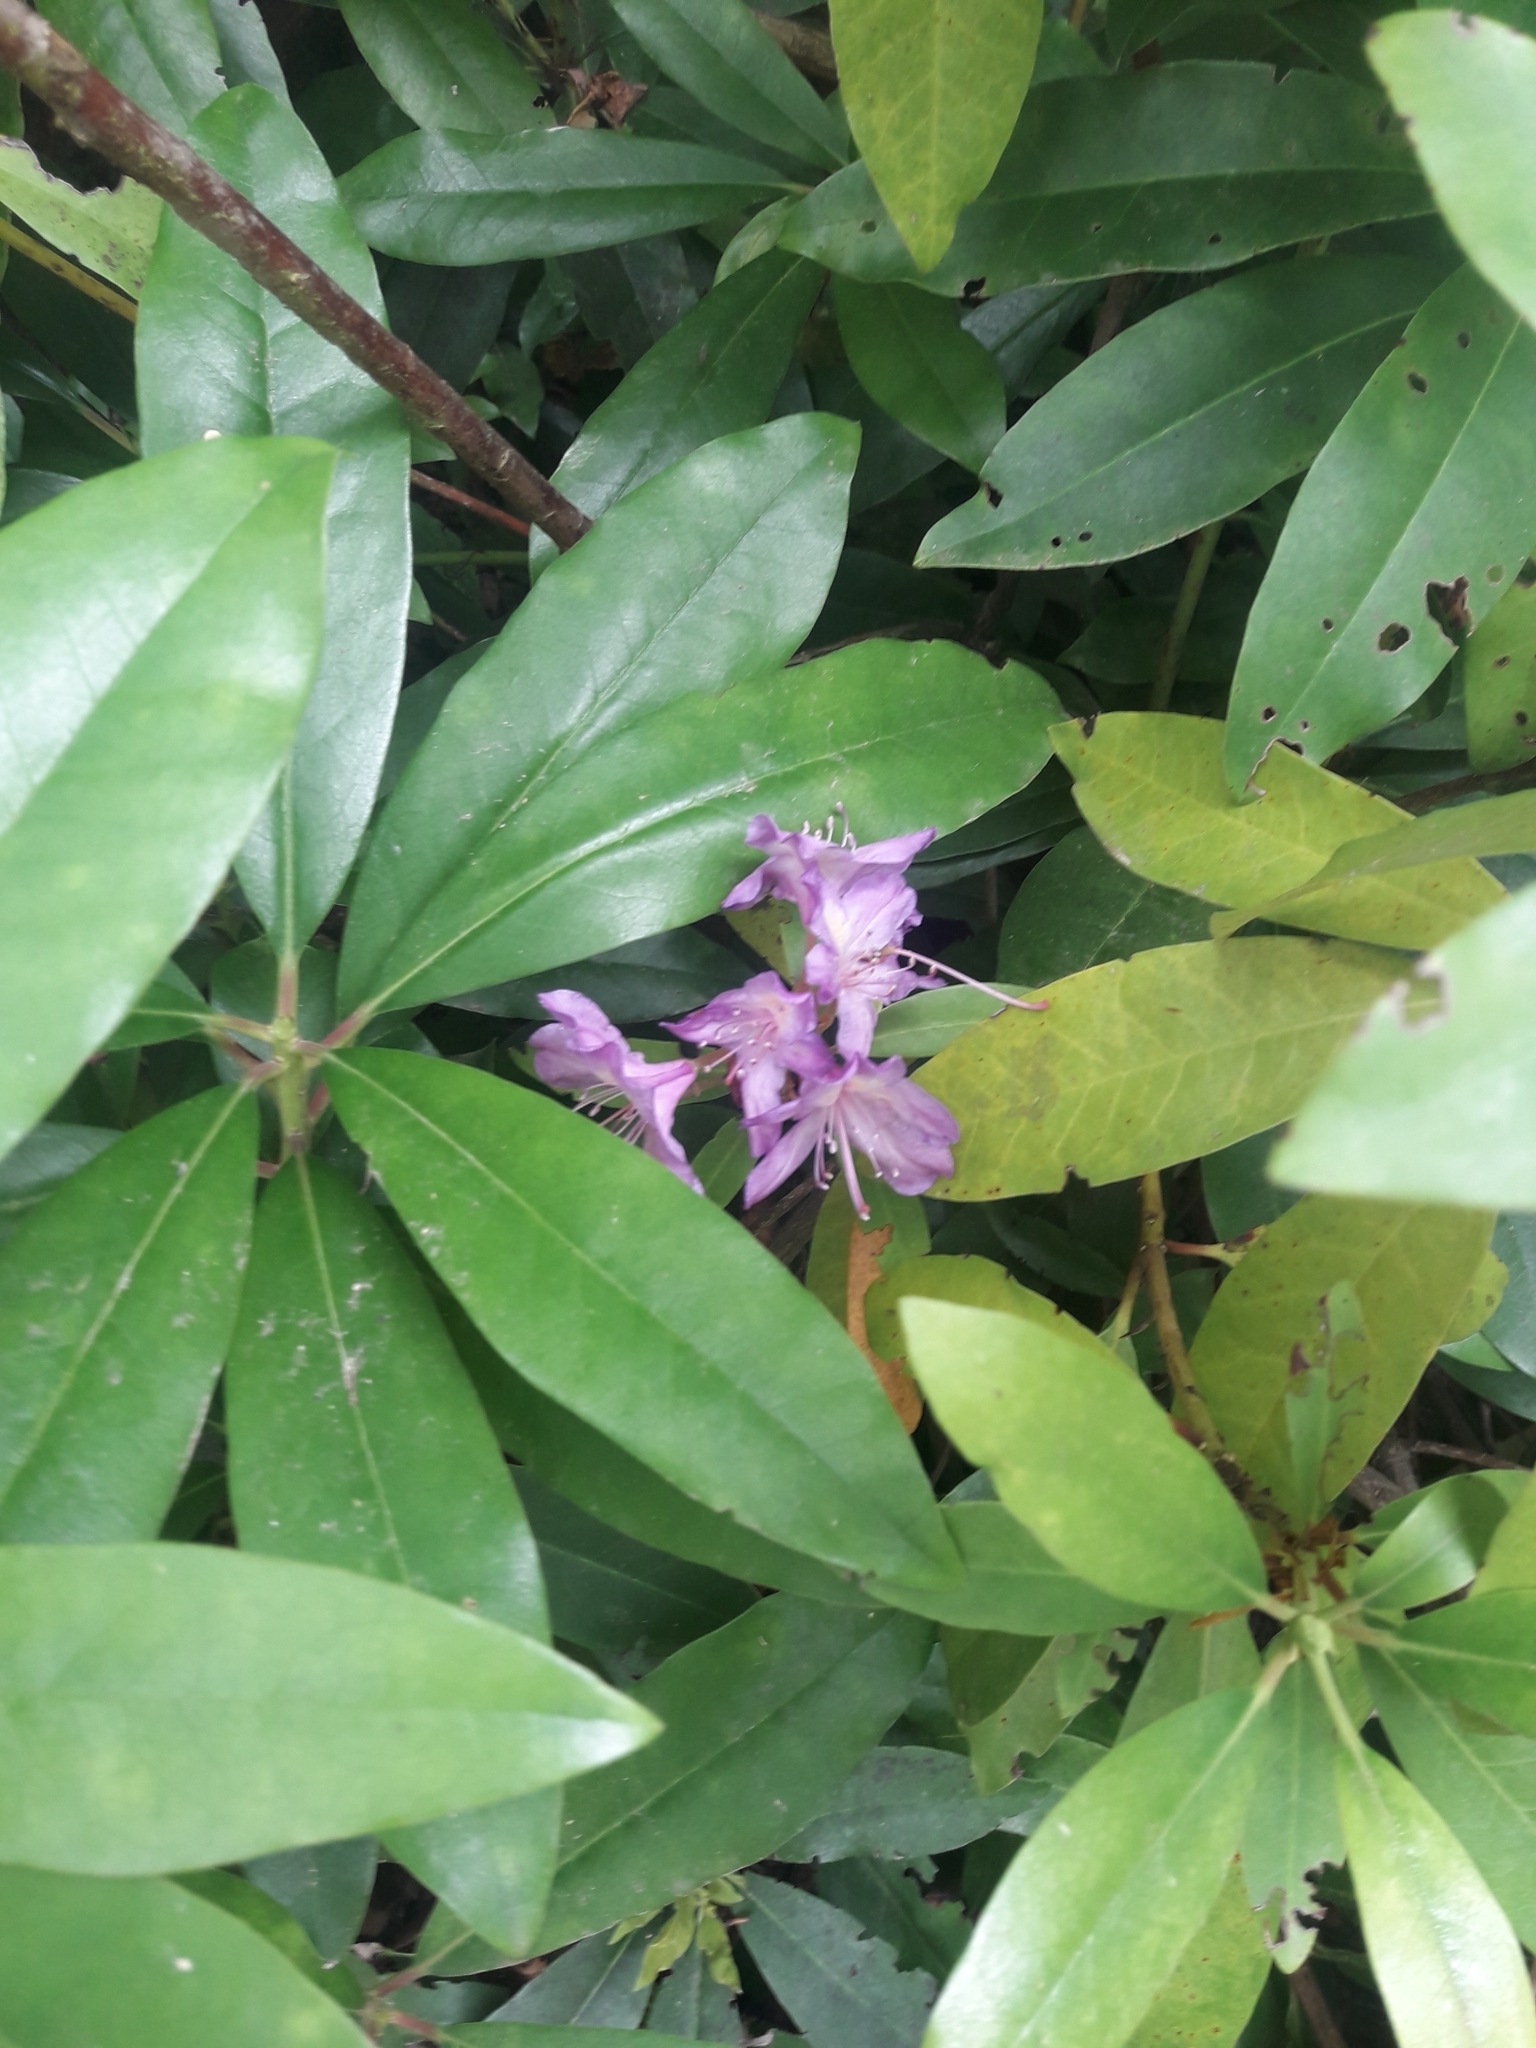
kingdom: Plantae
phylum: Tracheophyta
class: Magnoliopsida
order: Ericales
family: Ericaceae
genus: Rhododendron
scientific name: Rhododendron ponticum
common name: Rhododendron
